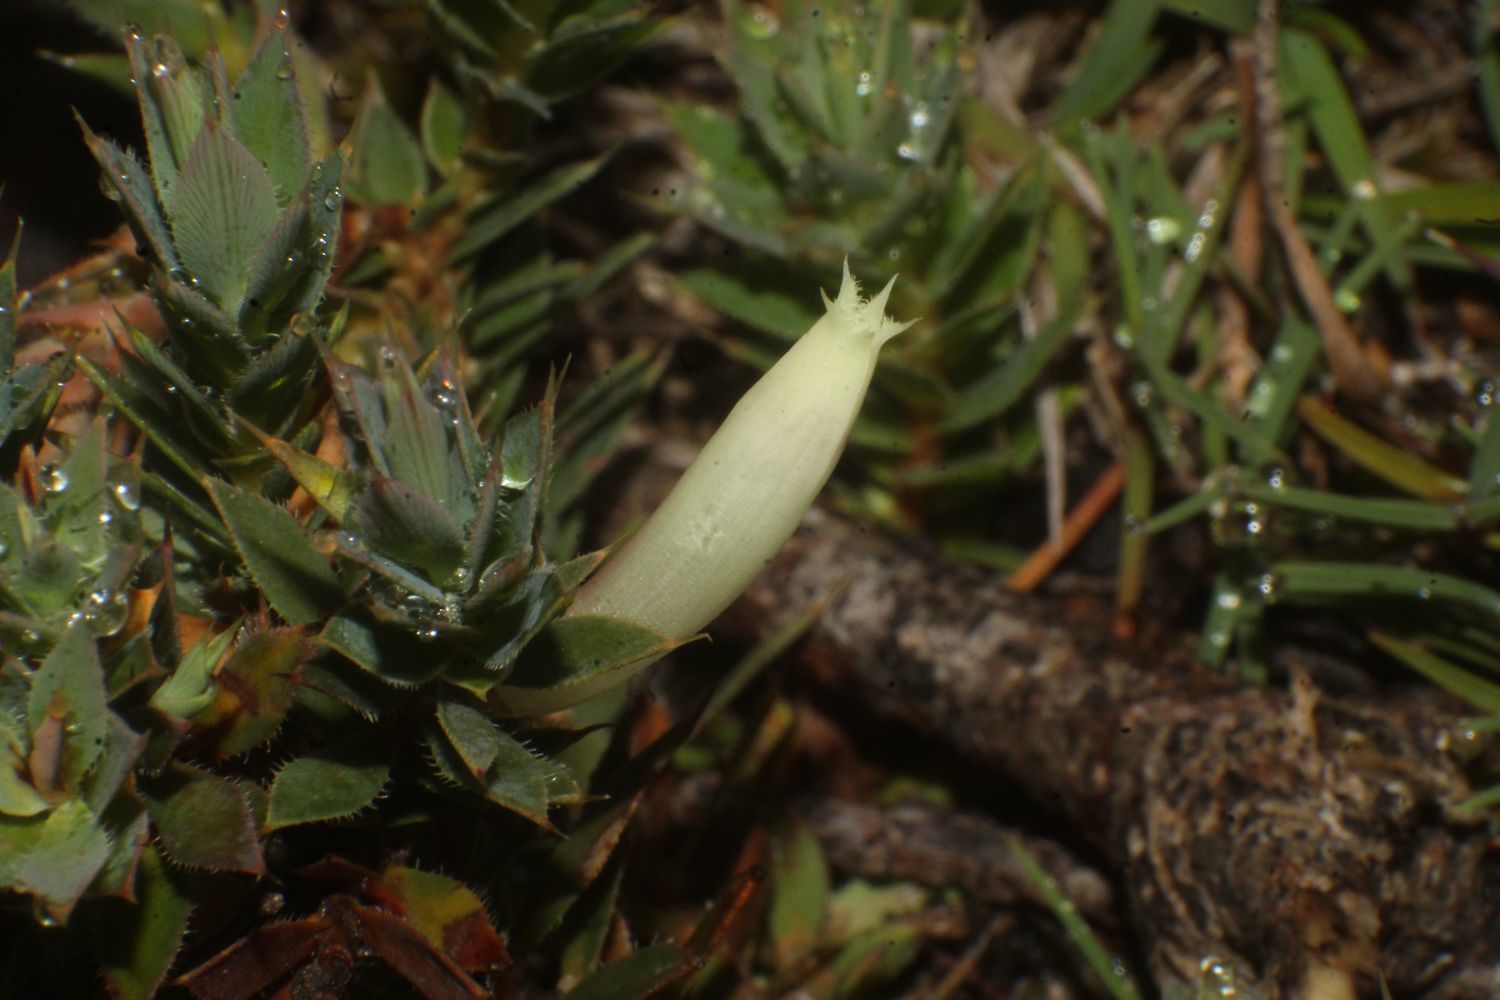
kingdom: Plantae
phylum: Tracheophyta
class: Magnoliopsida
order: Ericales
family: Ericaceae
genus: Styphelia
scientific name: Styphelia pallida
